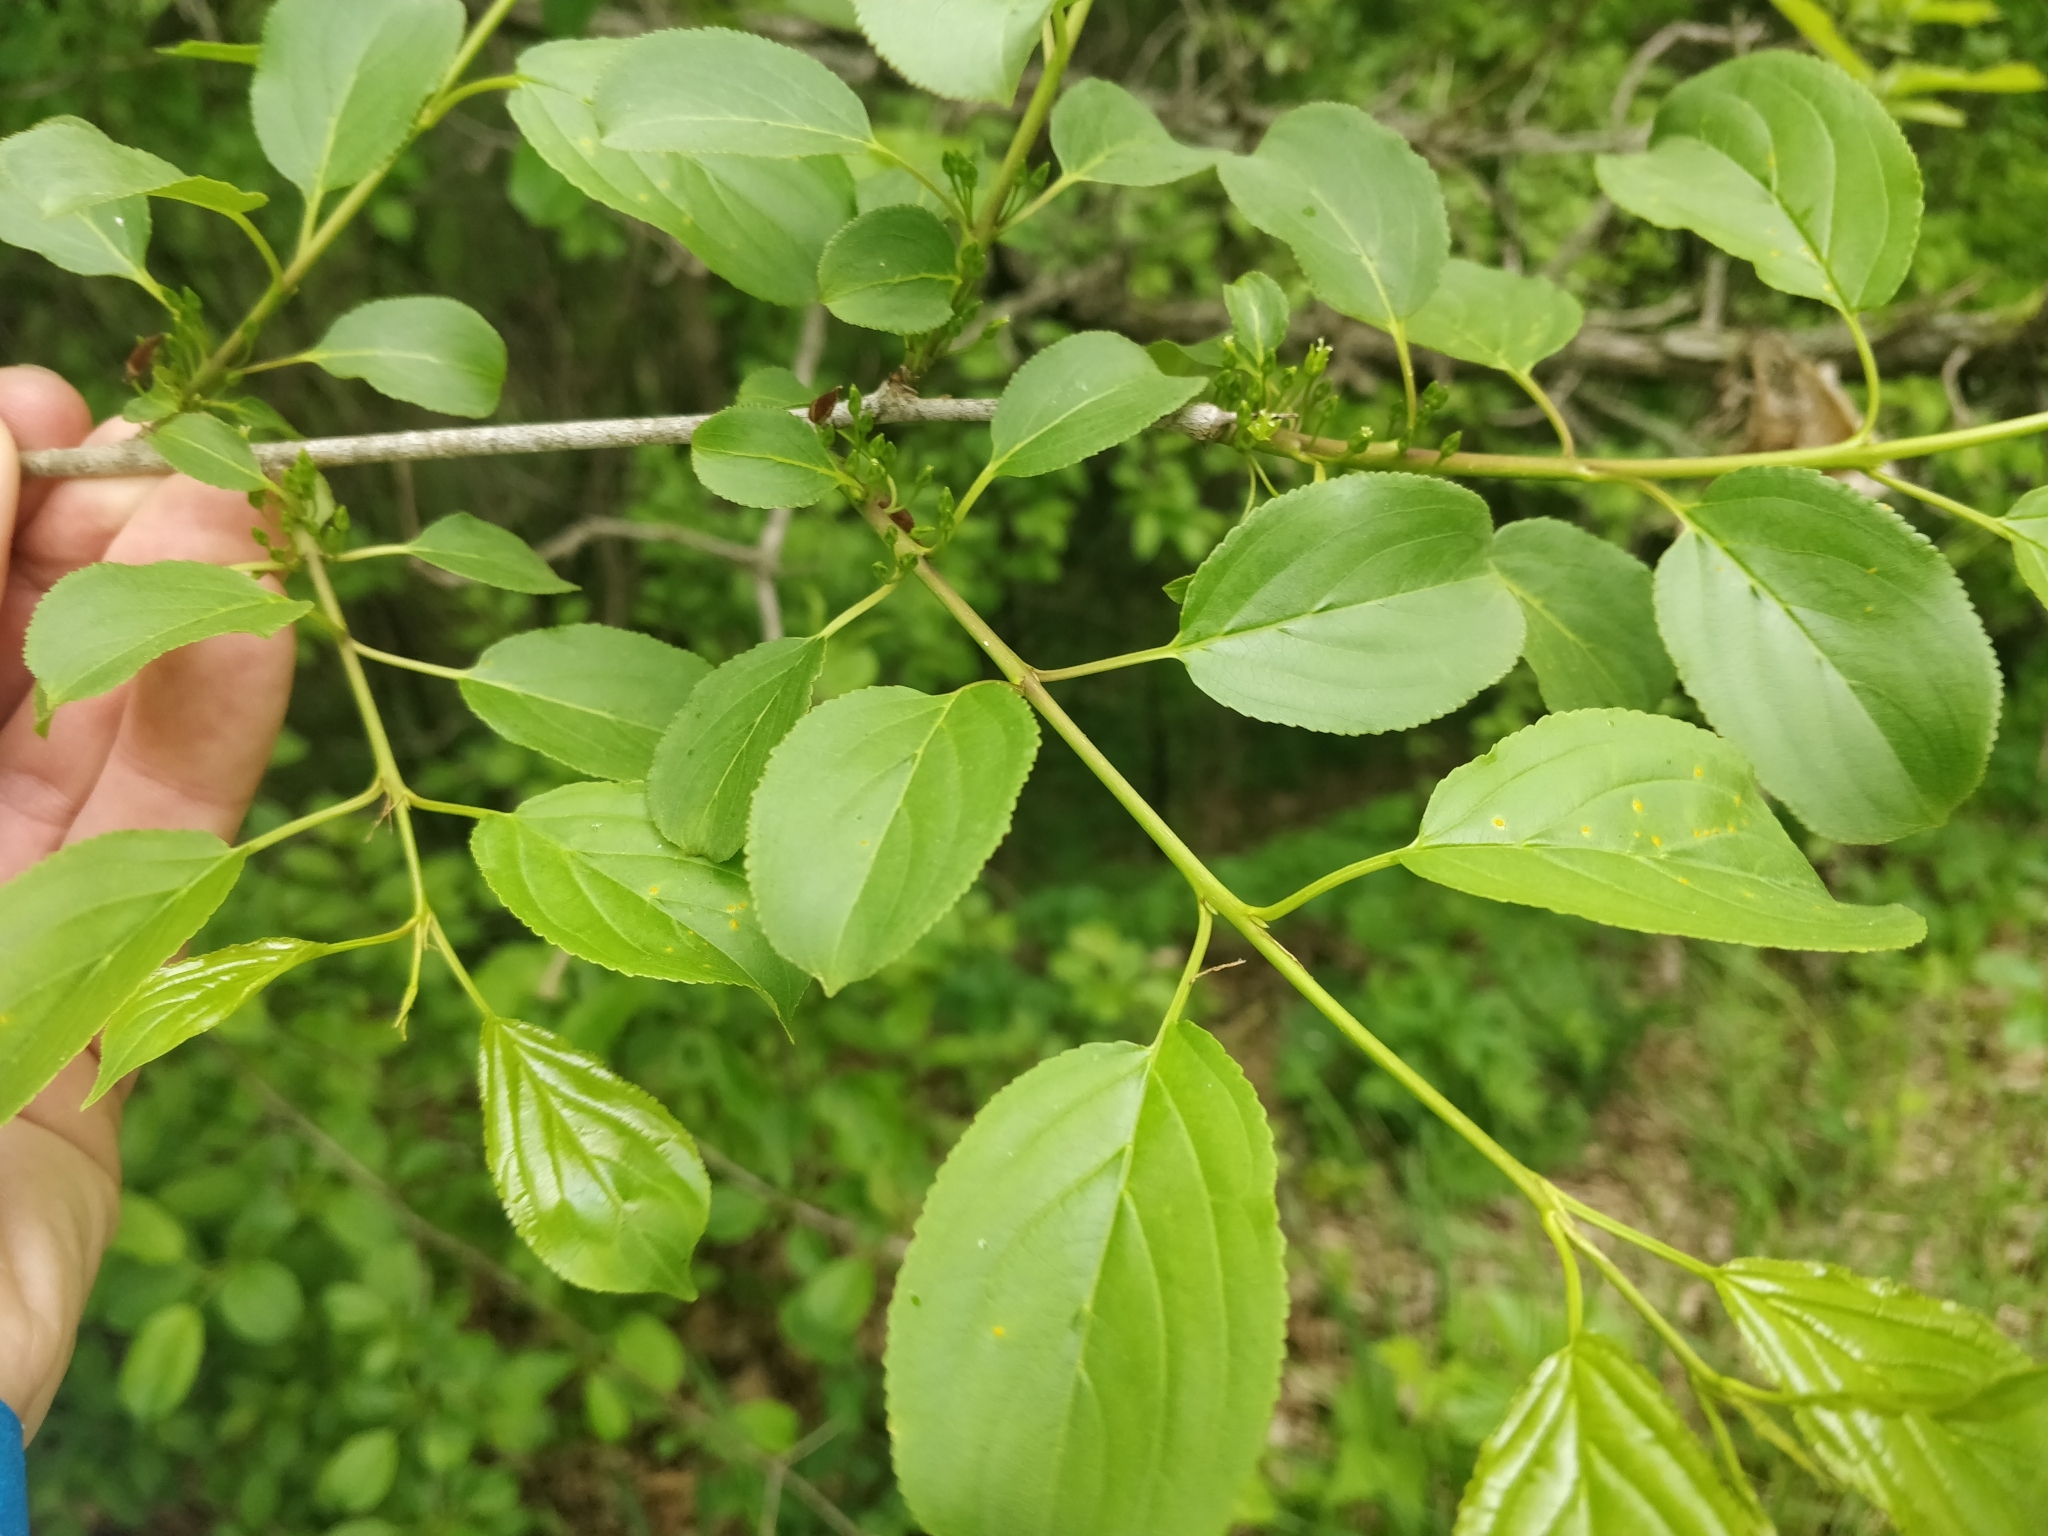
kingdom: Plantae
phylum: Tracheophyta
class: Magnoliopsida
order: Rosales
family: Rhamnaceae
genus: Rhamnus
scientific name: Rhamnus cathartica
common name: Common buckthorn
